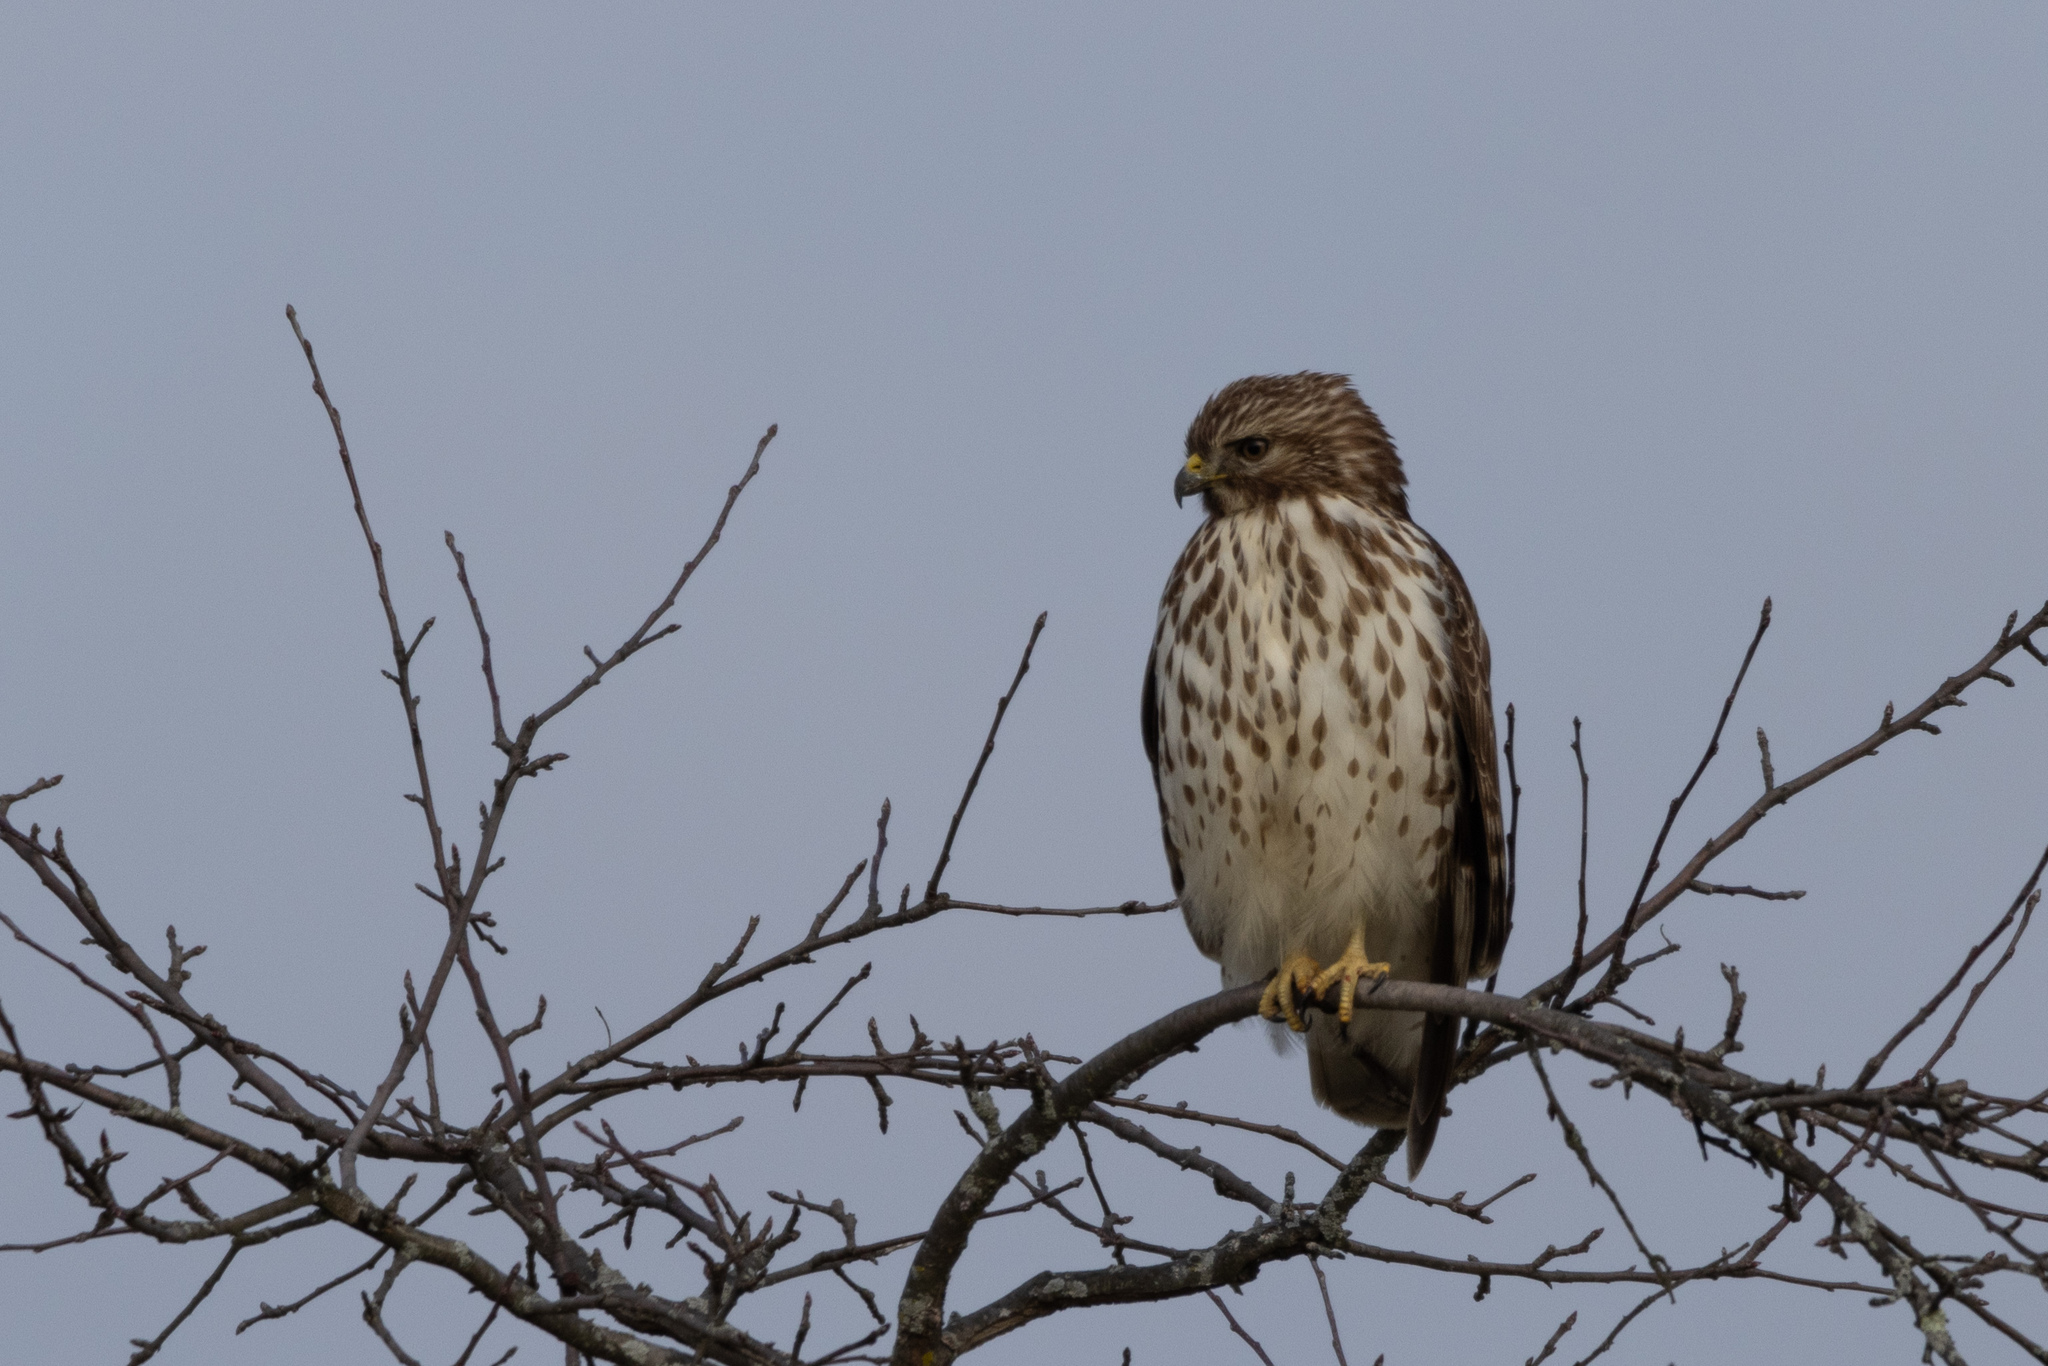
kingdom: Animalia
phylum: Chordata
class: Aves
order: Accipitriformes
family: Accipitridae
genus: Buteo
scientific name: Buteo lineatus
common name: Red-shouldered hawk
